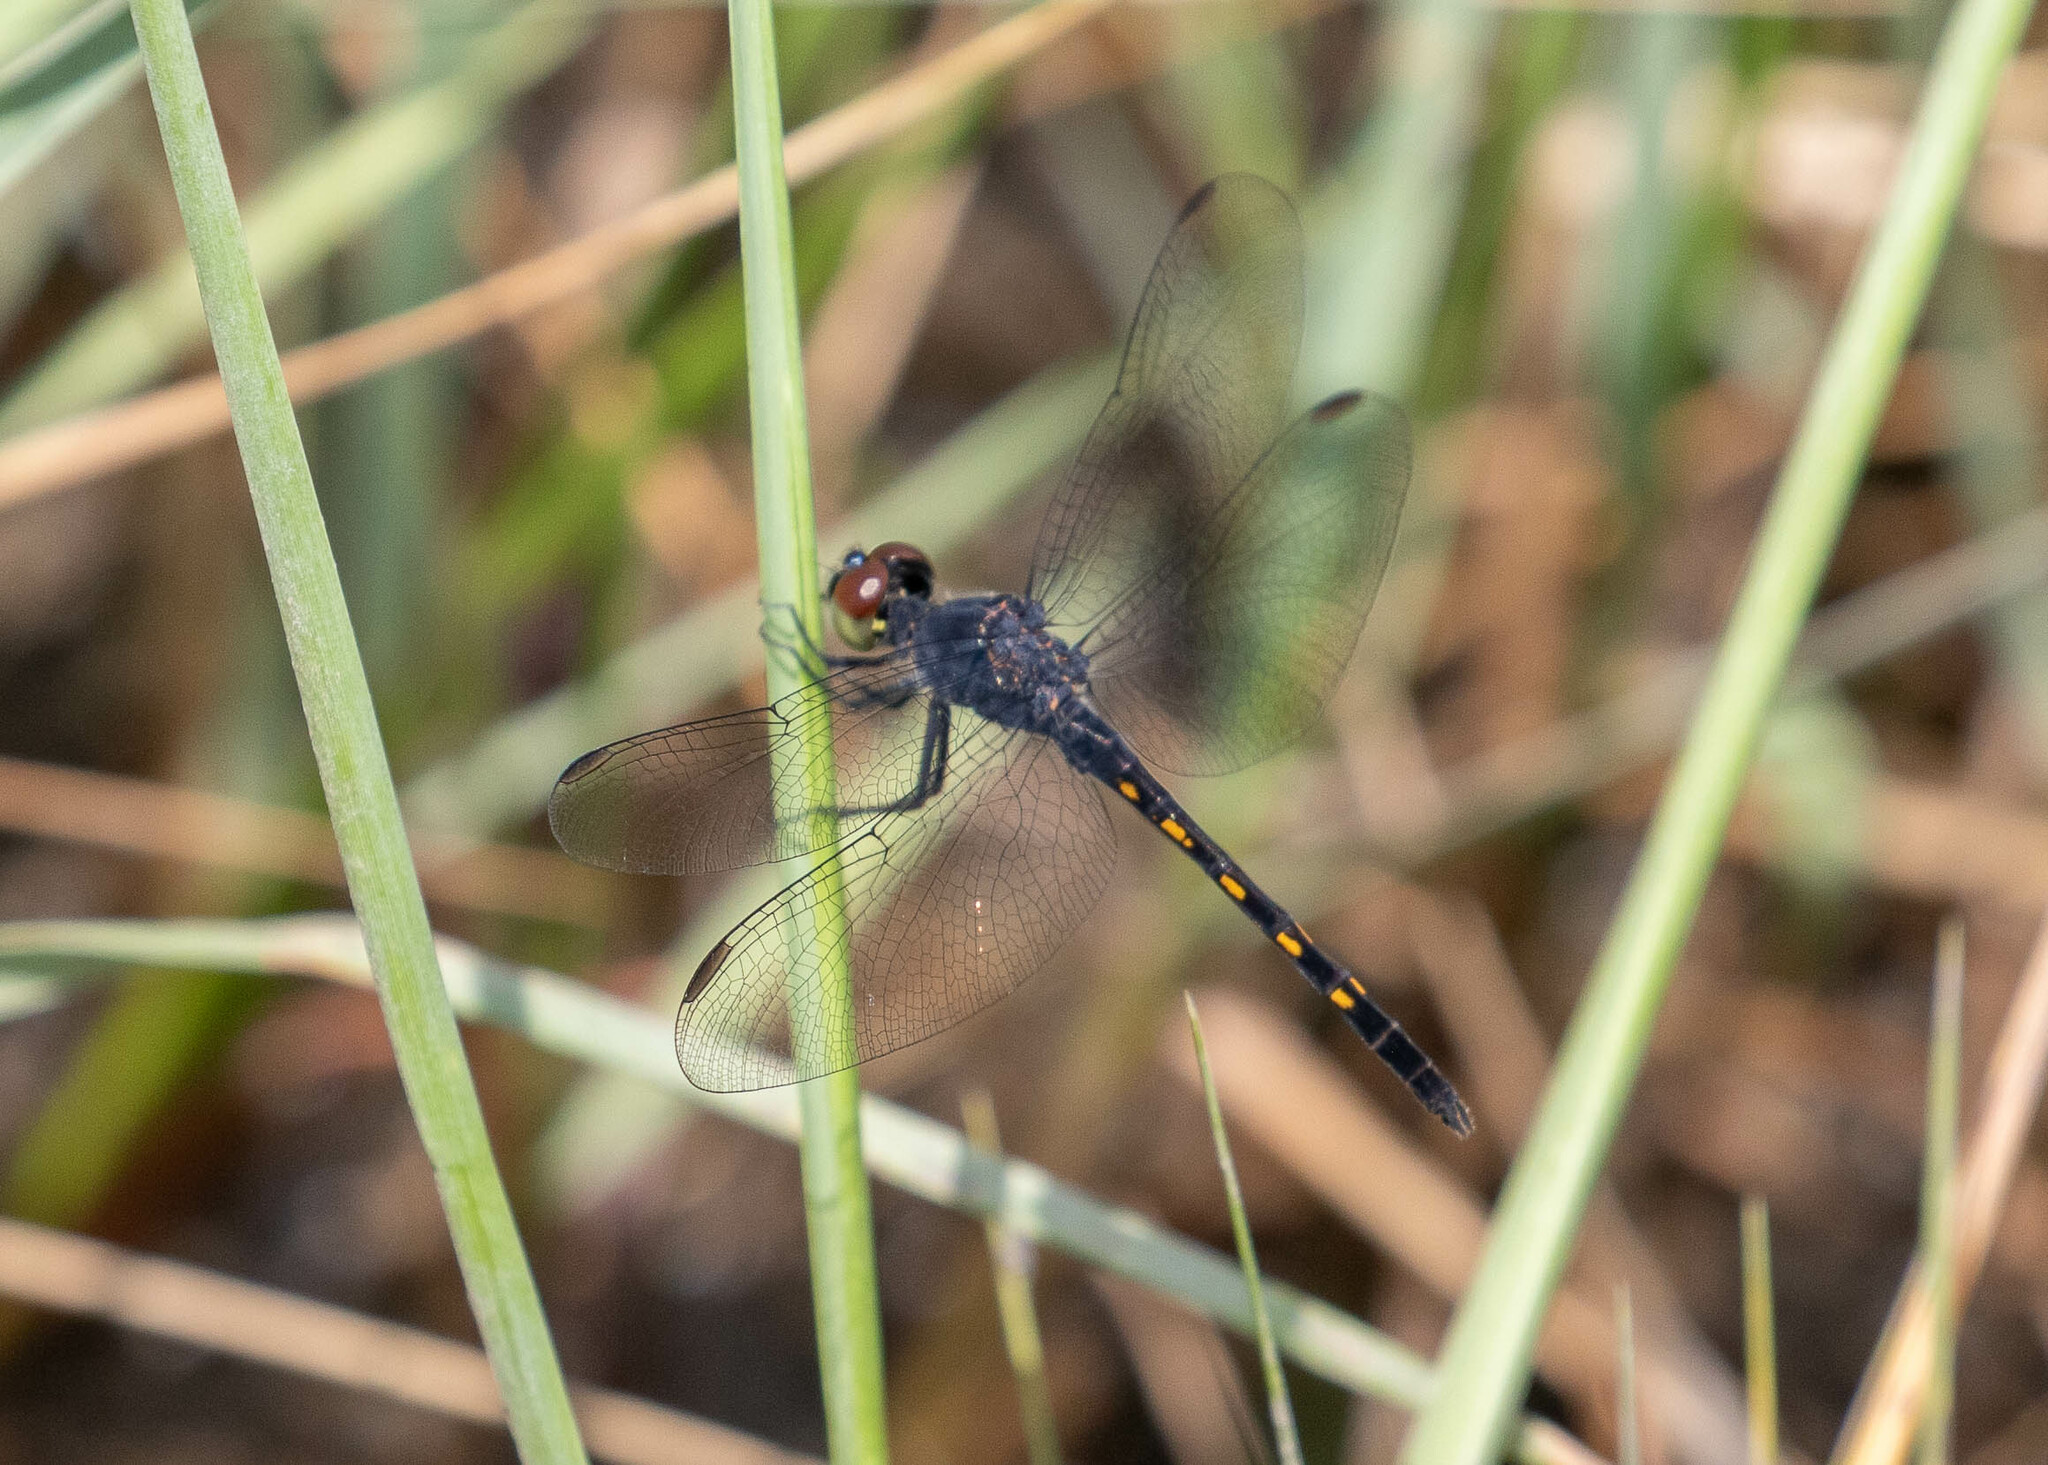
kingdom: Animalia
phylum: Arthropoda
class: Insecta
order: Odonata
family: Libellulidae
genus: Erythrodiplax
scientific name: Erythrodiplax berenice
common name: Seaside dragonlet
